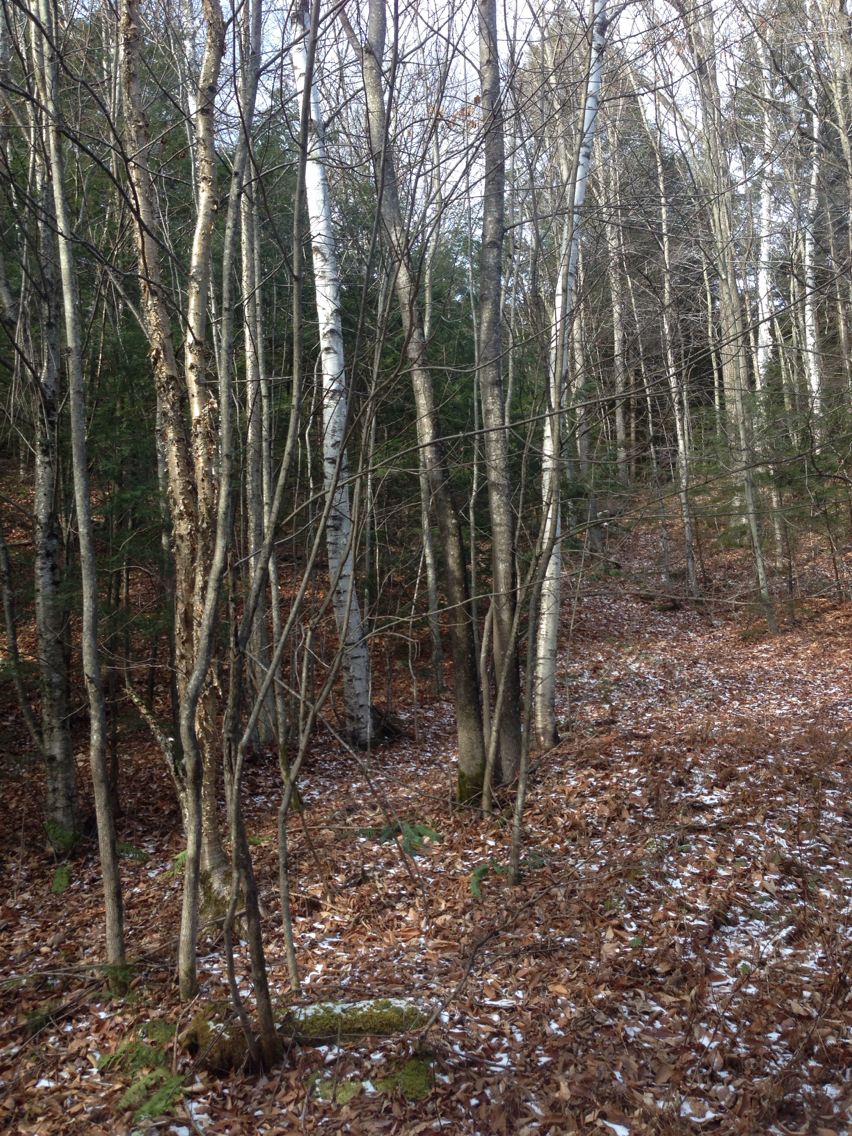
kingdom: Plantae
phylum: Tracheophyta
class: Magnoliopsida
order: Fagales
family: Betulaceae
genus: Betula
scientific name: Betula papyrifera
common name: Paper birch
